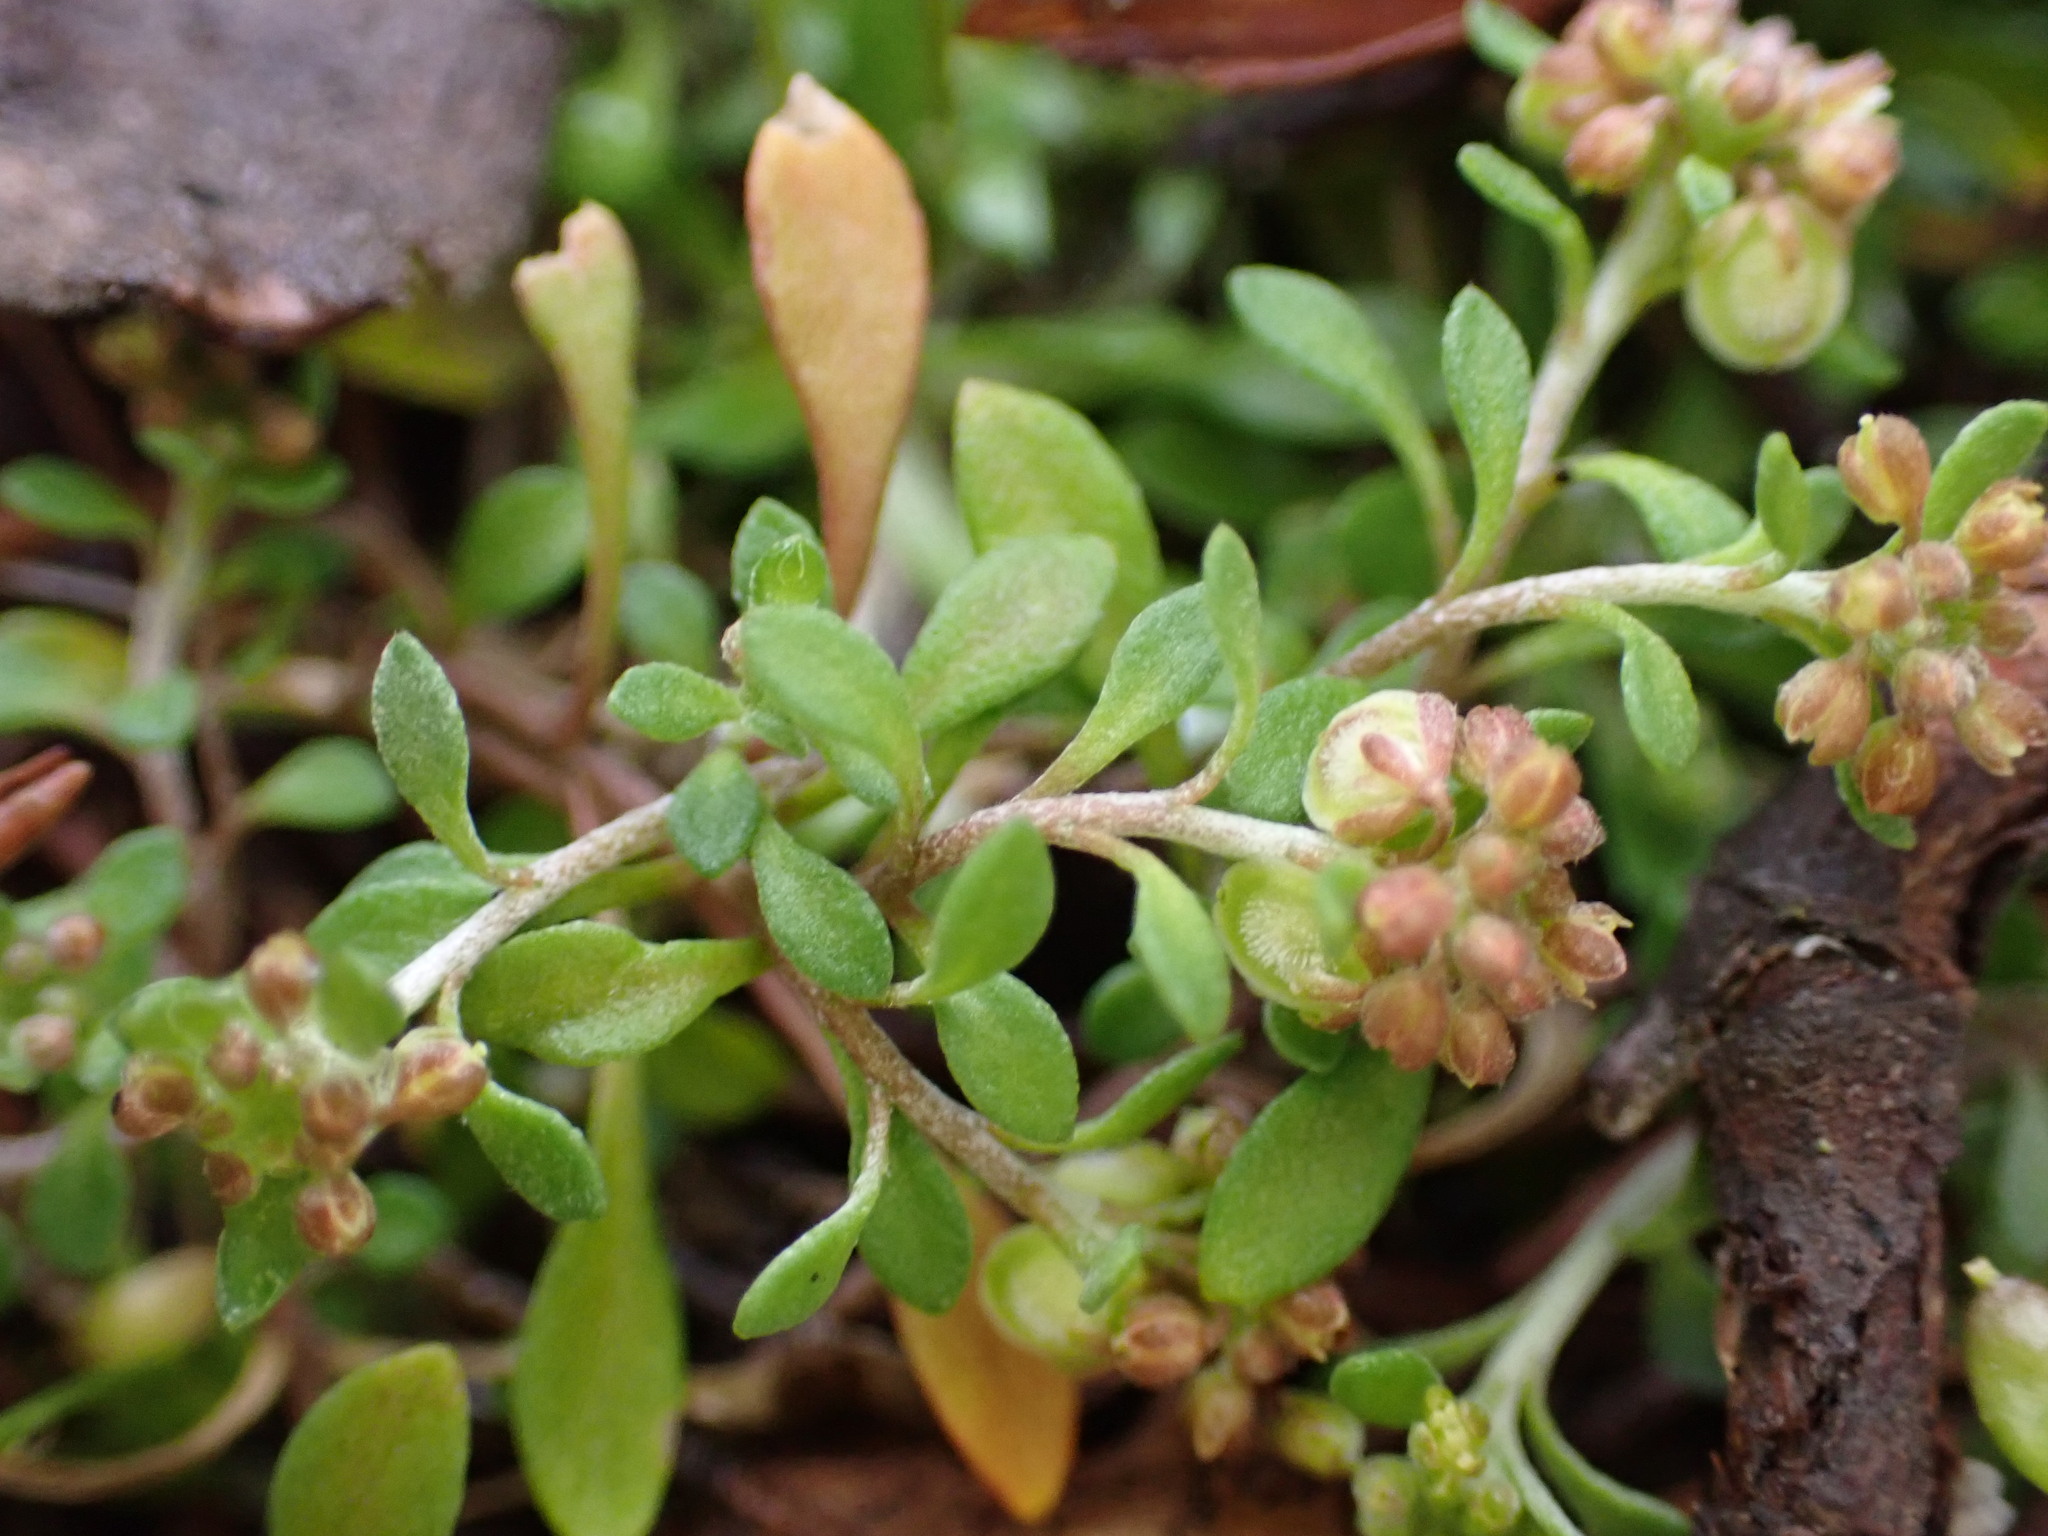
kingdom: Plantae
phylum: Tracheophyta
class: Magnoliopsida
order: Brassicales
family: Brassicaceae
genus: Draba
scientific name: Draba verna
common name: Spring draba
